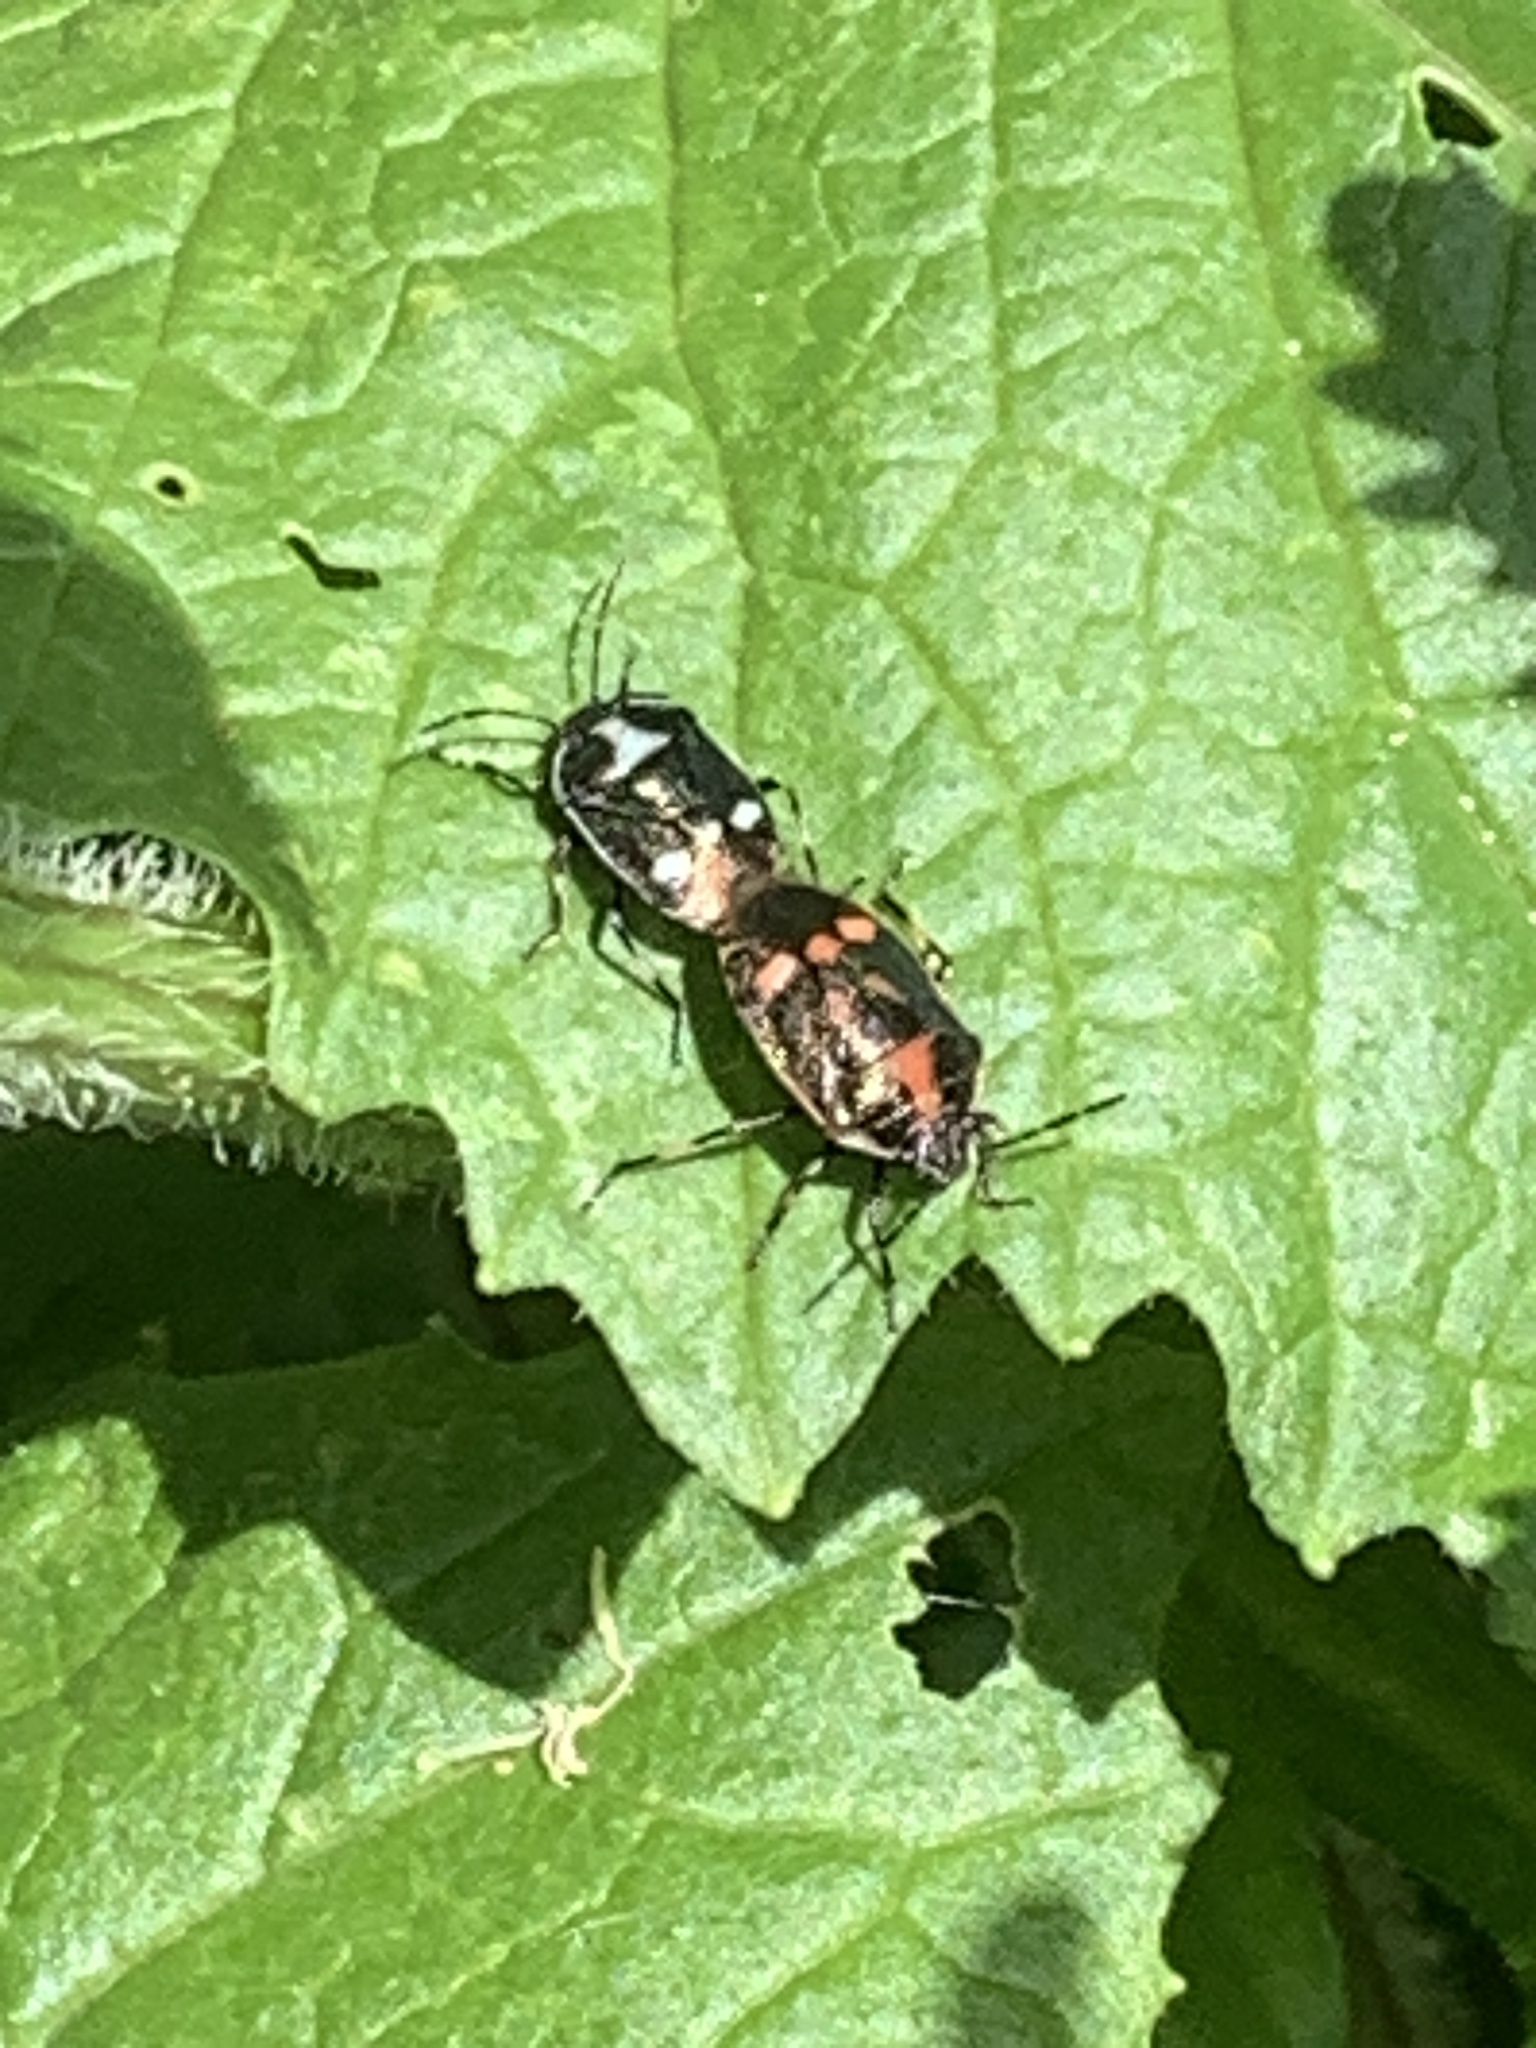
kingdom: Animalia
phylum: Arthropoda
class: Insecta
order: Hemiptera
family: Pentatomidae
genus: Eurydema
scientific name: Eurydema oleracea
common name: Cabbage bug
